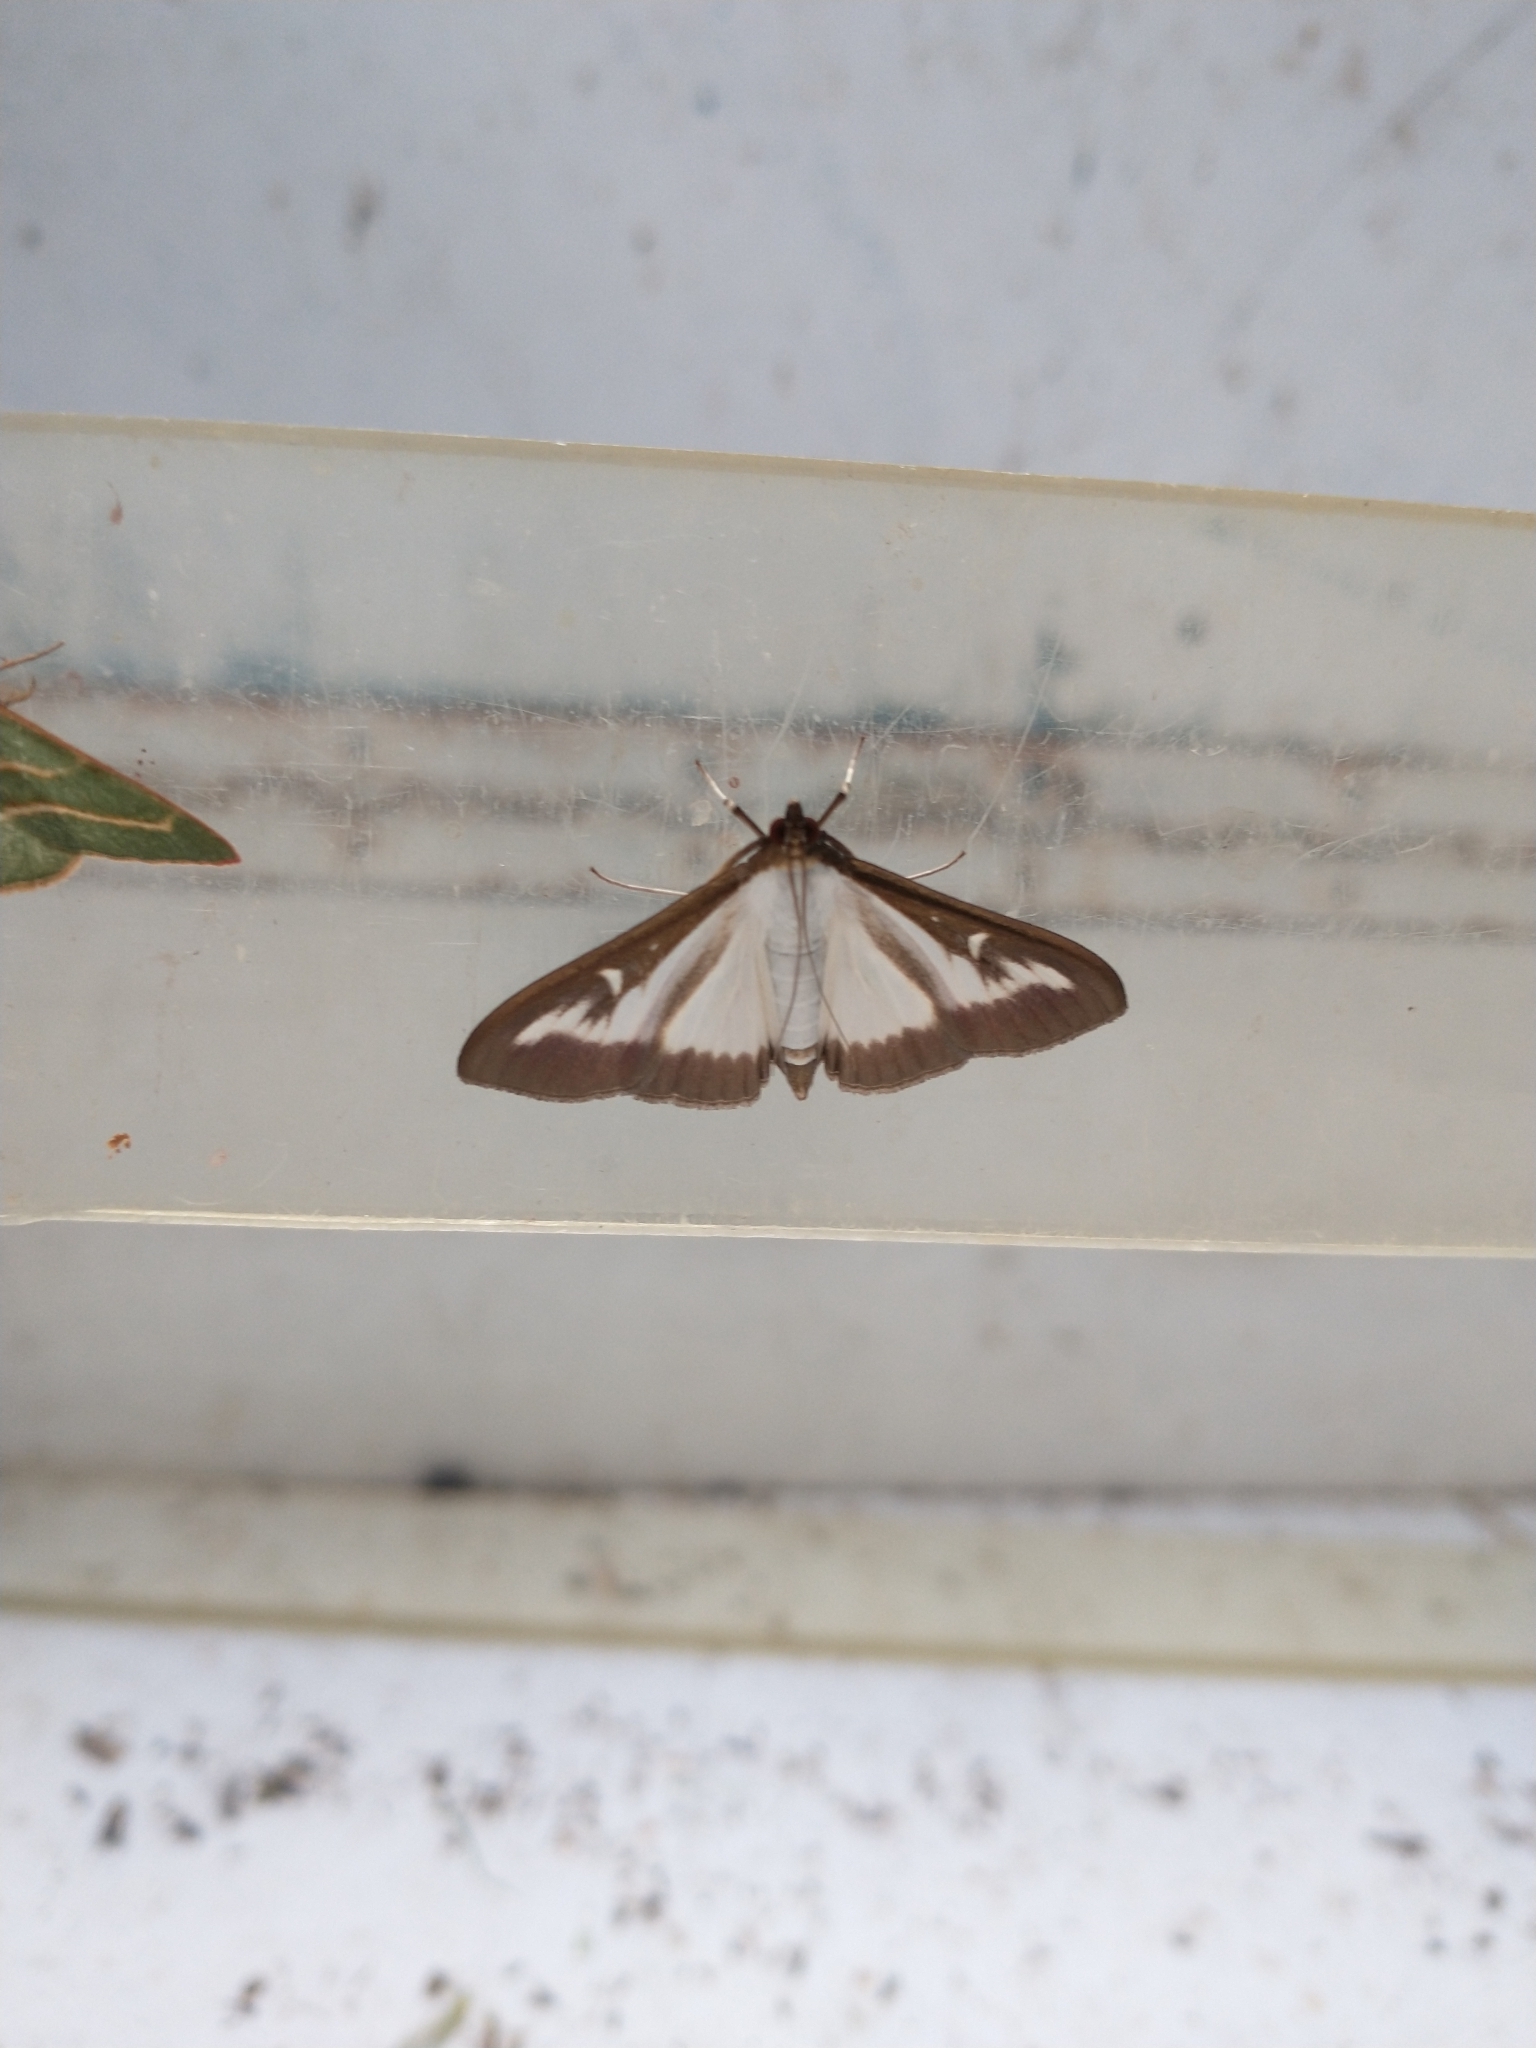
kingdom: Animalia
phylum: Arthropoda
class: Insecta
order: Lepidoptera
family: Crambidae
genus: Cydalima
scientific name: Cydalima perspectalis
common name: Box tree moth
